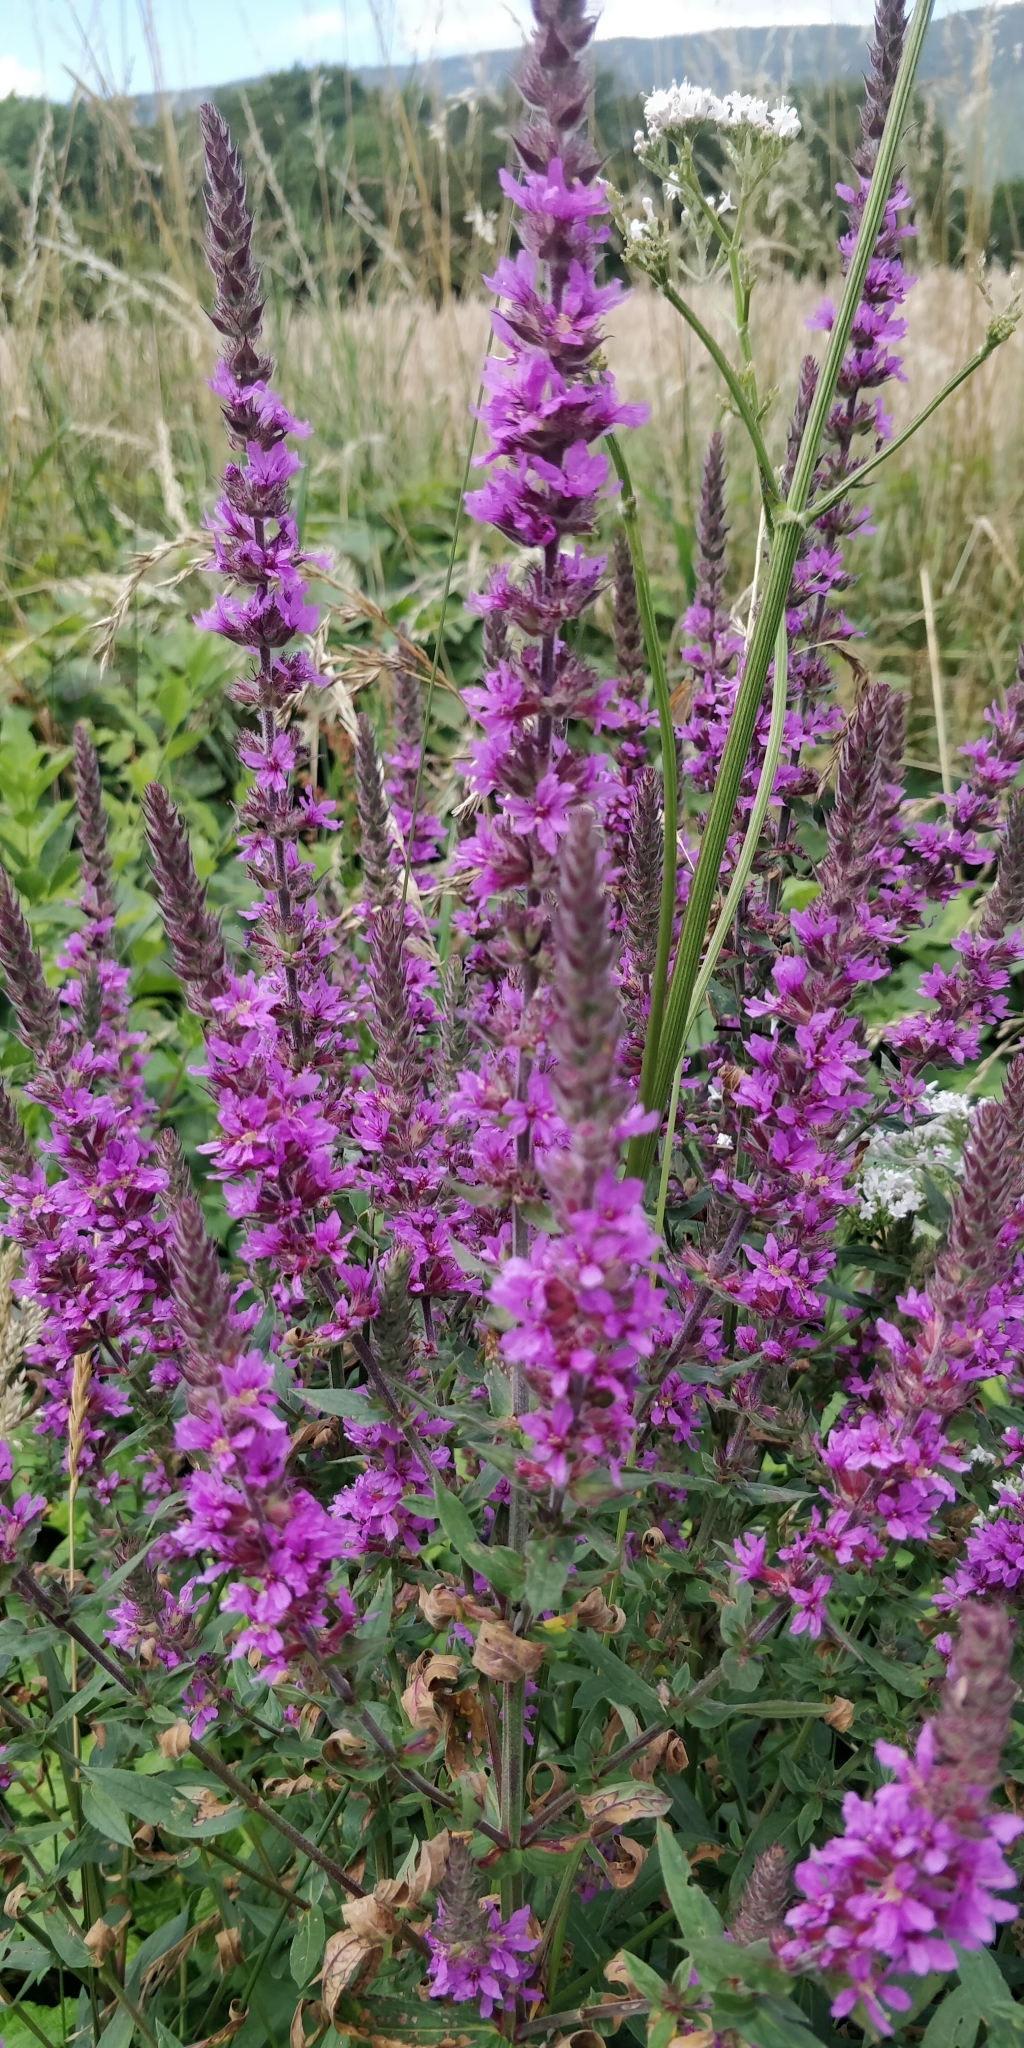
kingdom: Plantae
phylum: Tracheophyta
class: Magnoliopsida
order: Myrtales
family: Lythraceae
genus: Lythrum
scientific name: Lythrum salicaria
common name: Purple loosestrife
